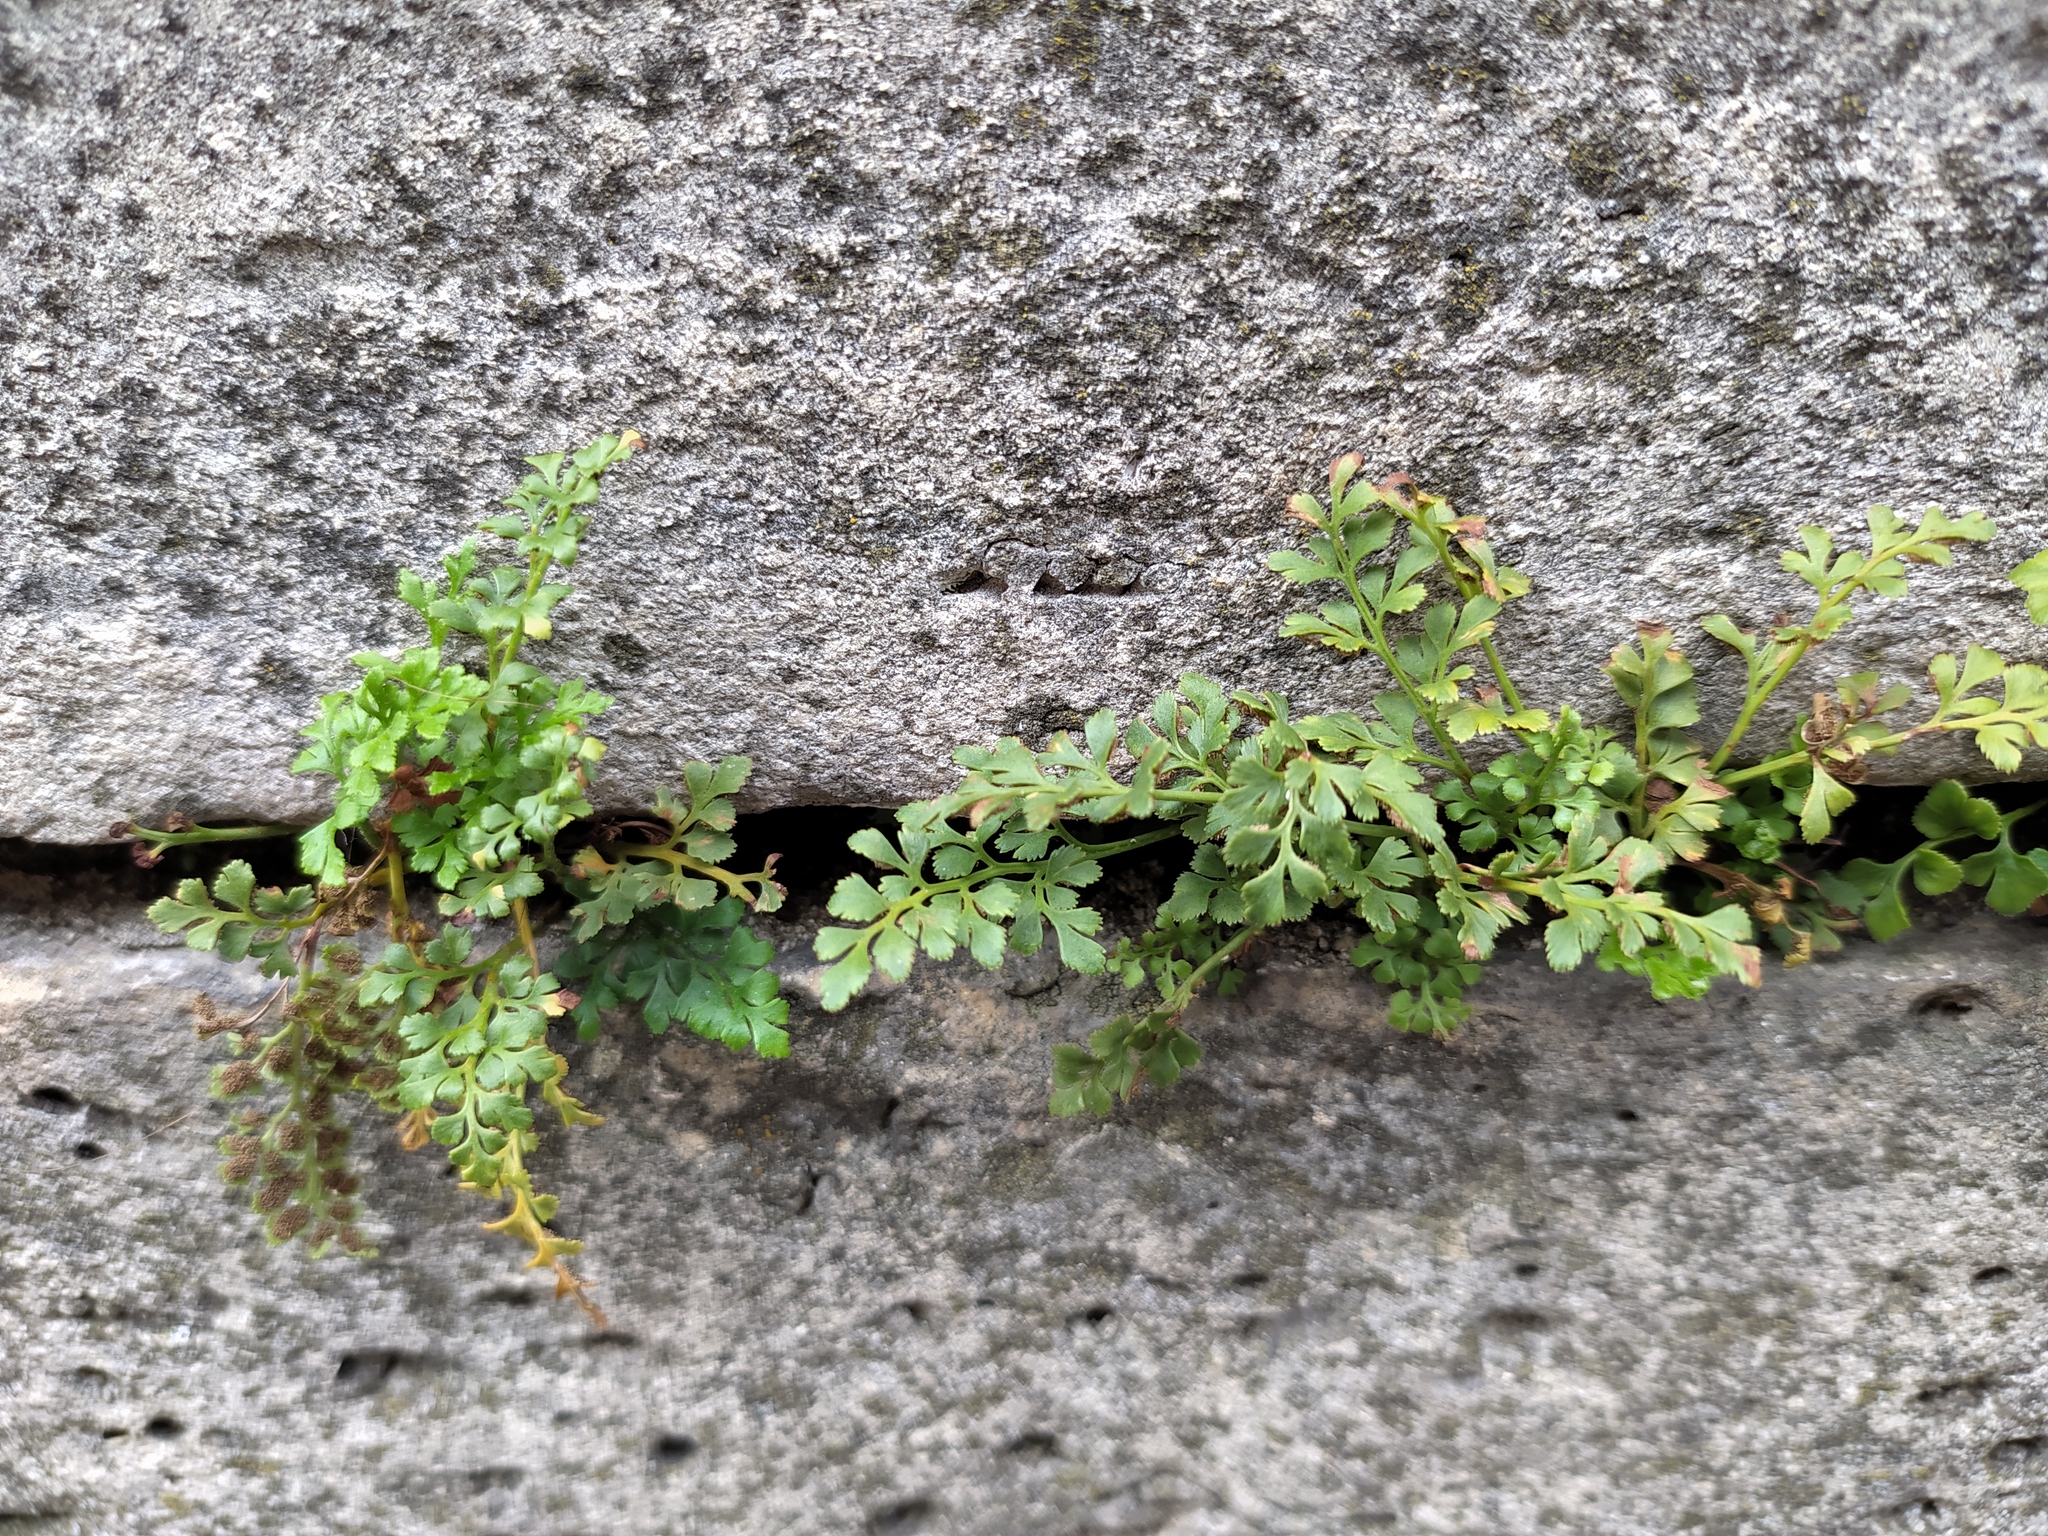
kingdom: Plantae
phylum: Tracheophyta
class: Polypodiopsida
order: Polypodiales
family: Aspleniaceae
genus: Asplenium
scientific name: Asplenium ruta-muraria
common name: Wall-rue
